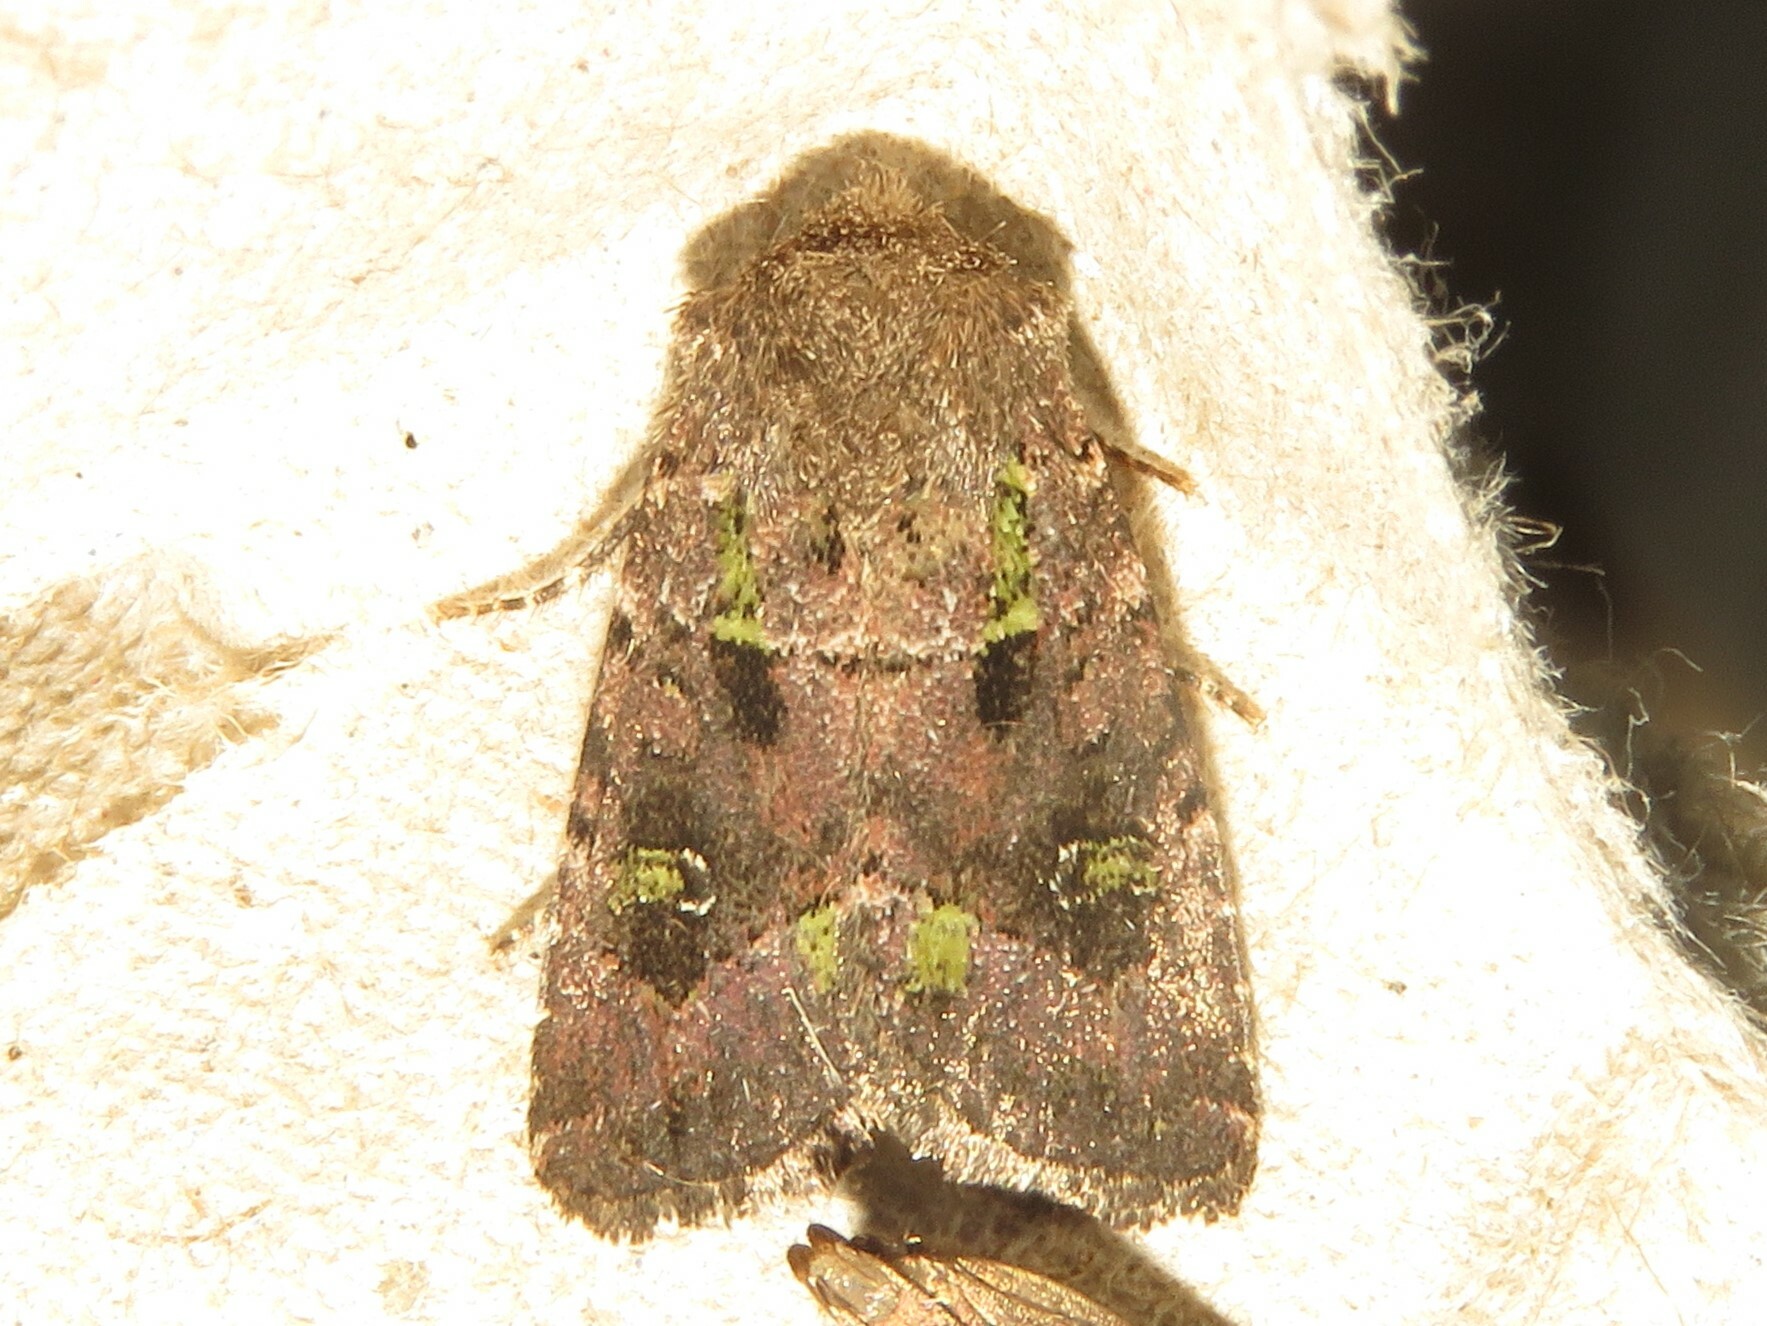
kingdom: Animalia
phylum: Arthropoda
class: Insecta
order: Lepidoptera
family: Noctuidae
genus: Lacinipolia
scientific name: Lacinipolia renigera
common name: Kidney-spotted minor
